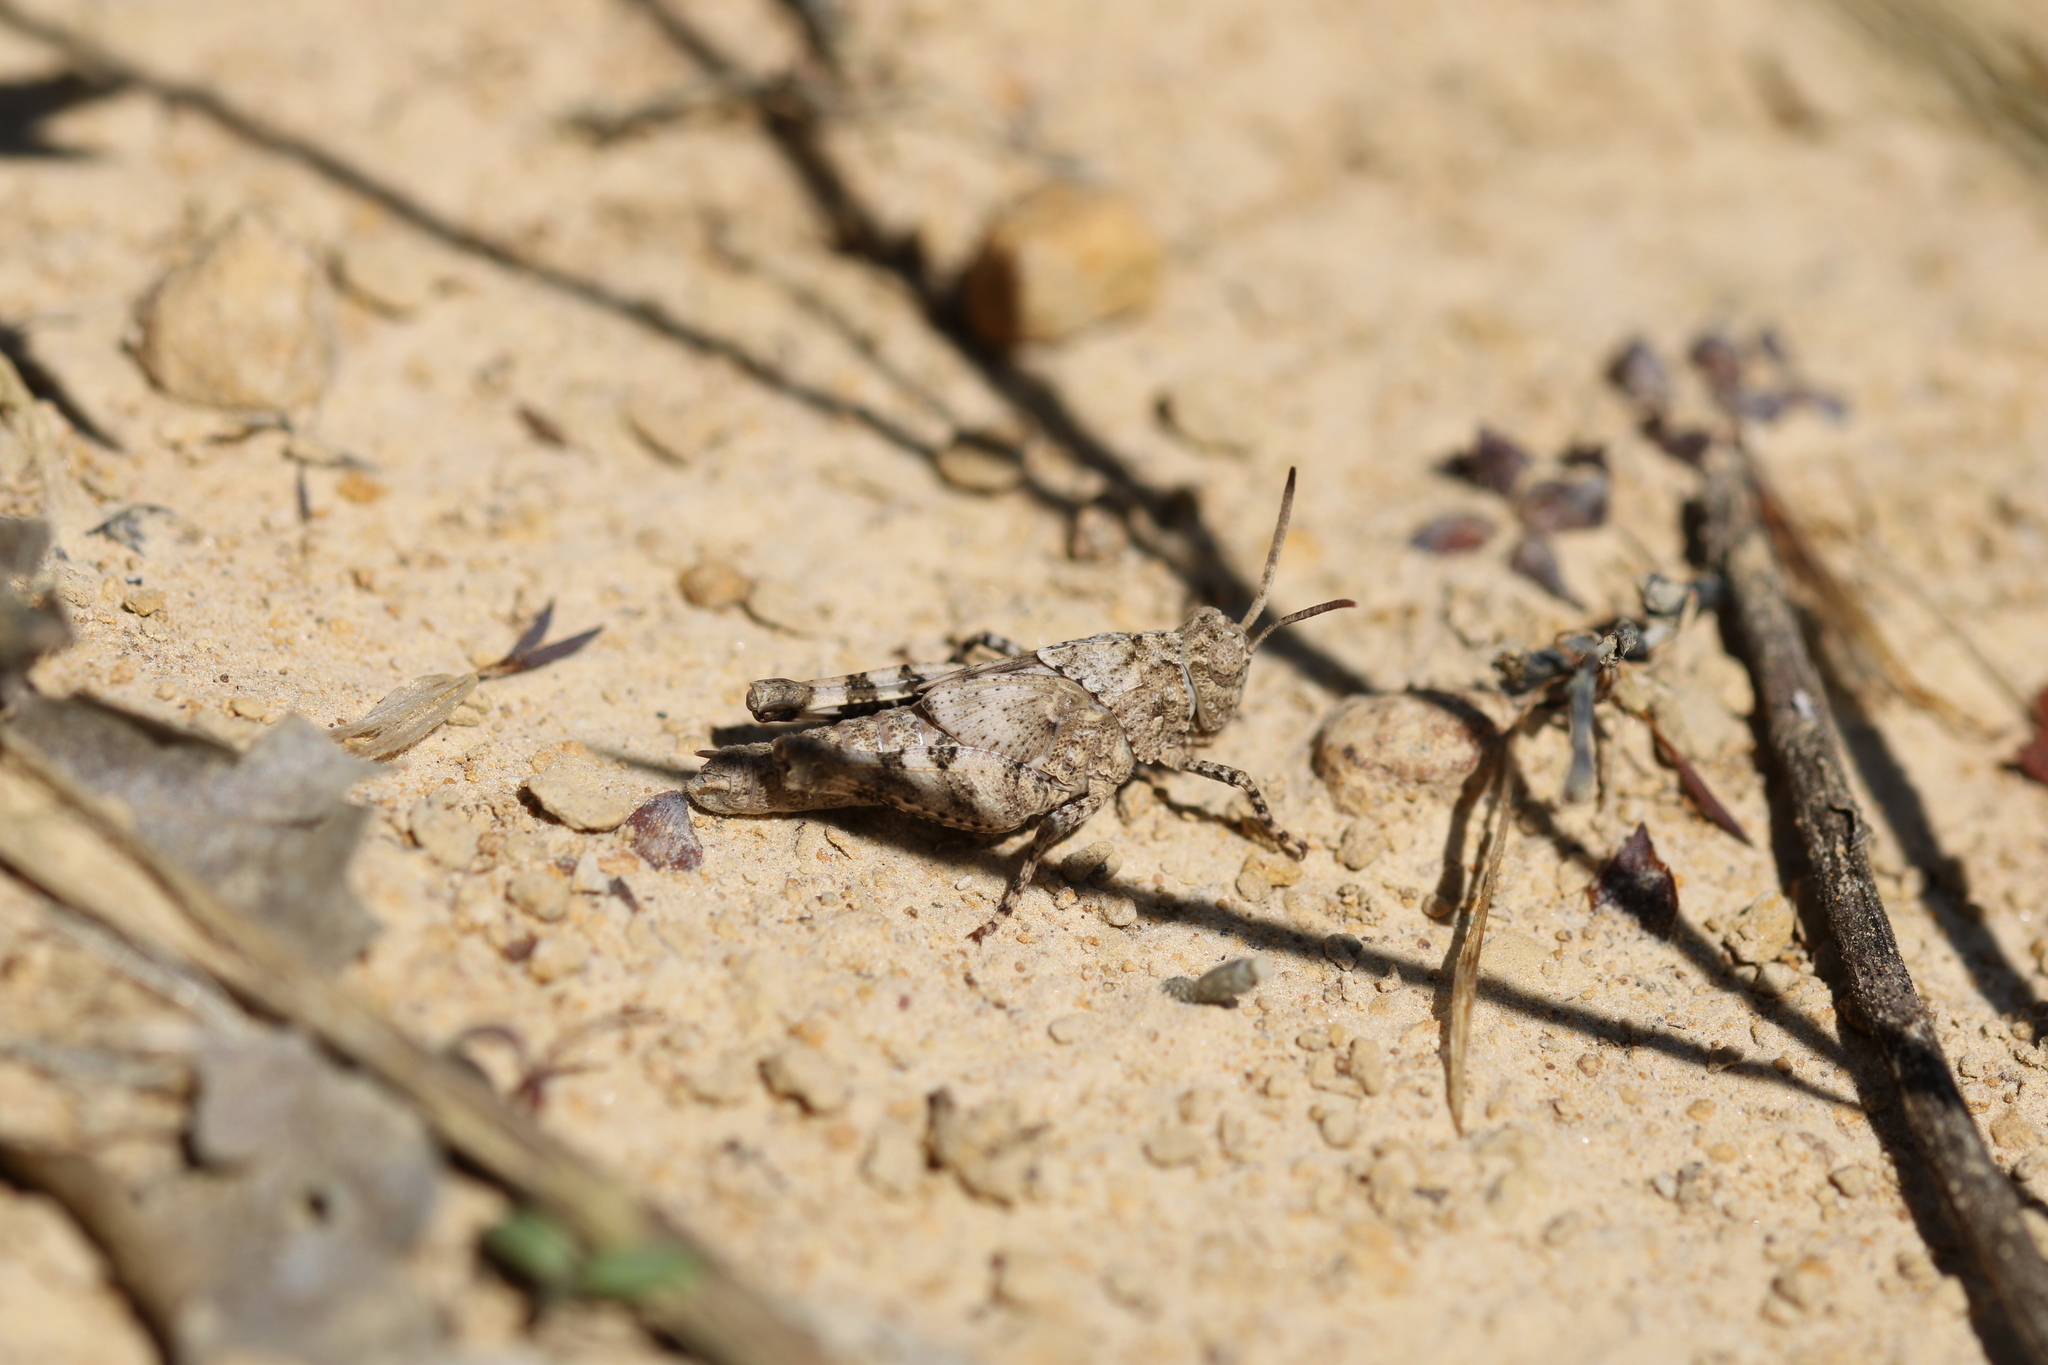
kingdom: Animalia
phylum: Arthropoda
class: Insecta
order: Orthoptera
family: Acrididae
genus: Oedipoda
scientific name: Oedipoda caerulescens
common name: Blue-winged grasshopper
